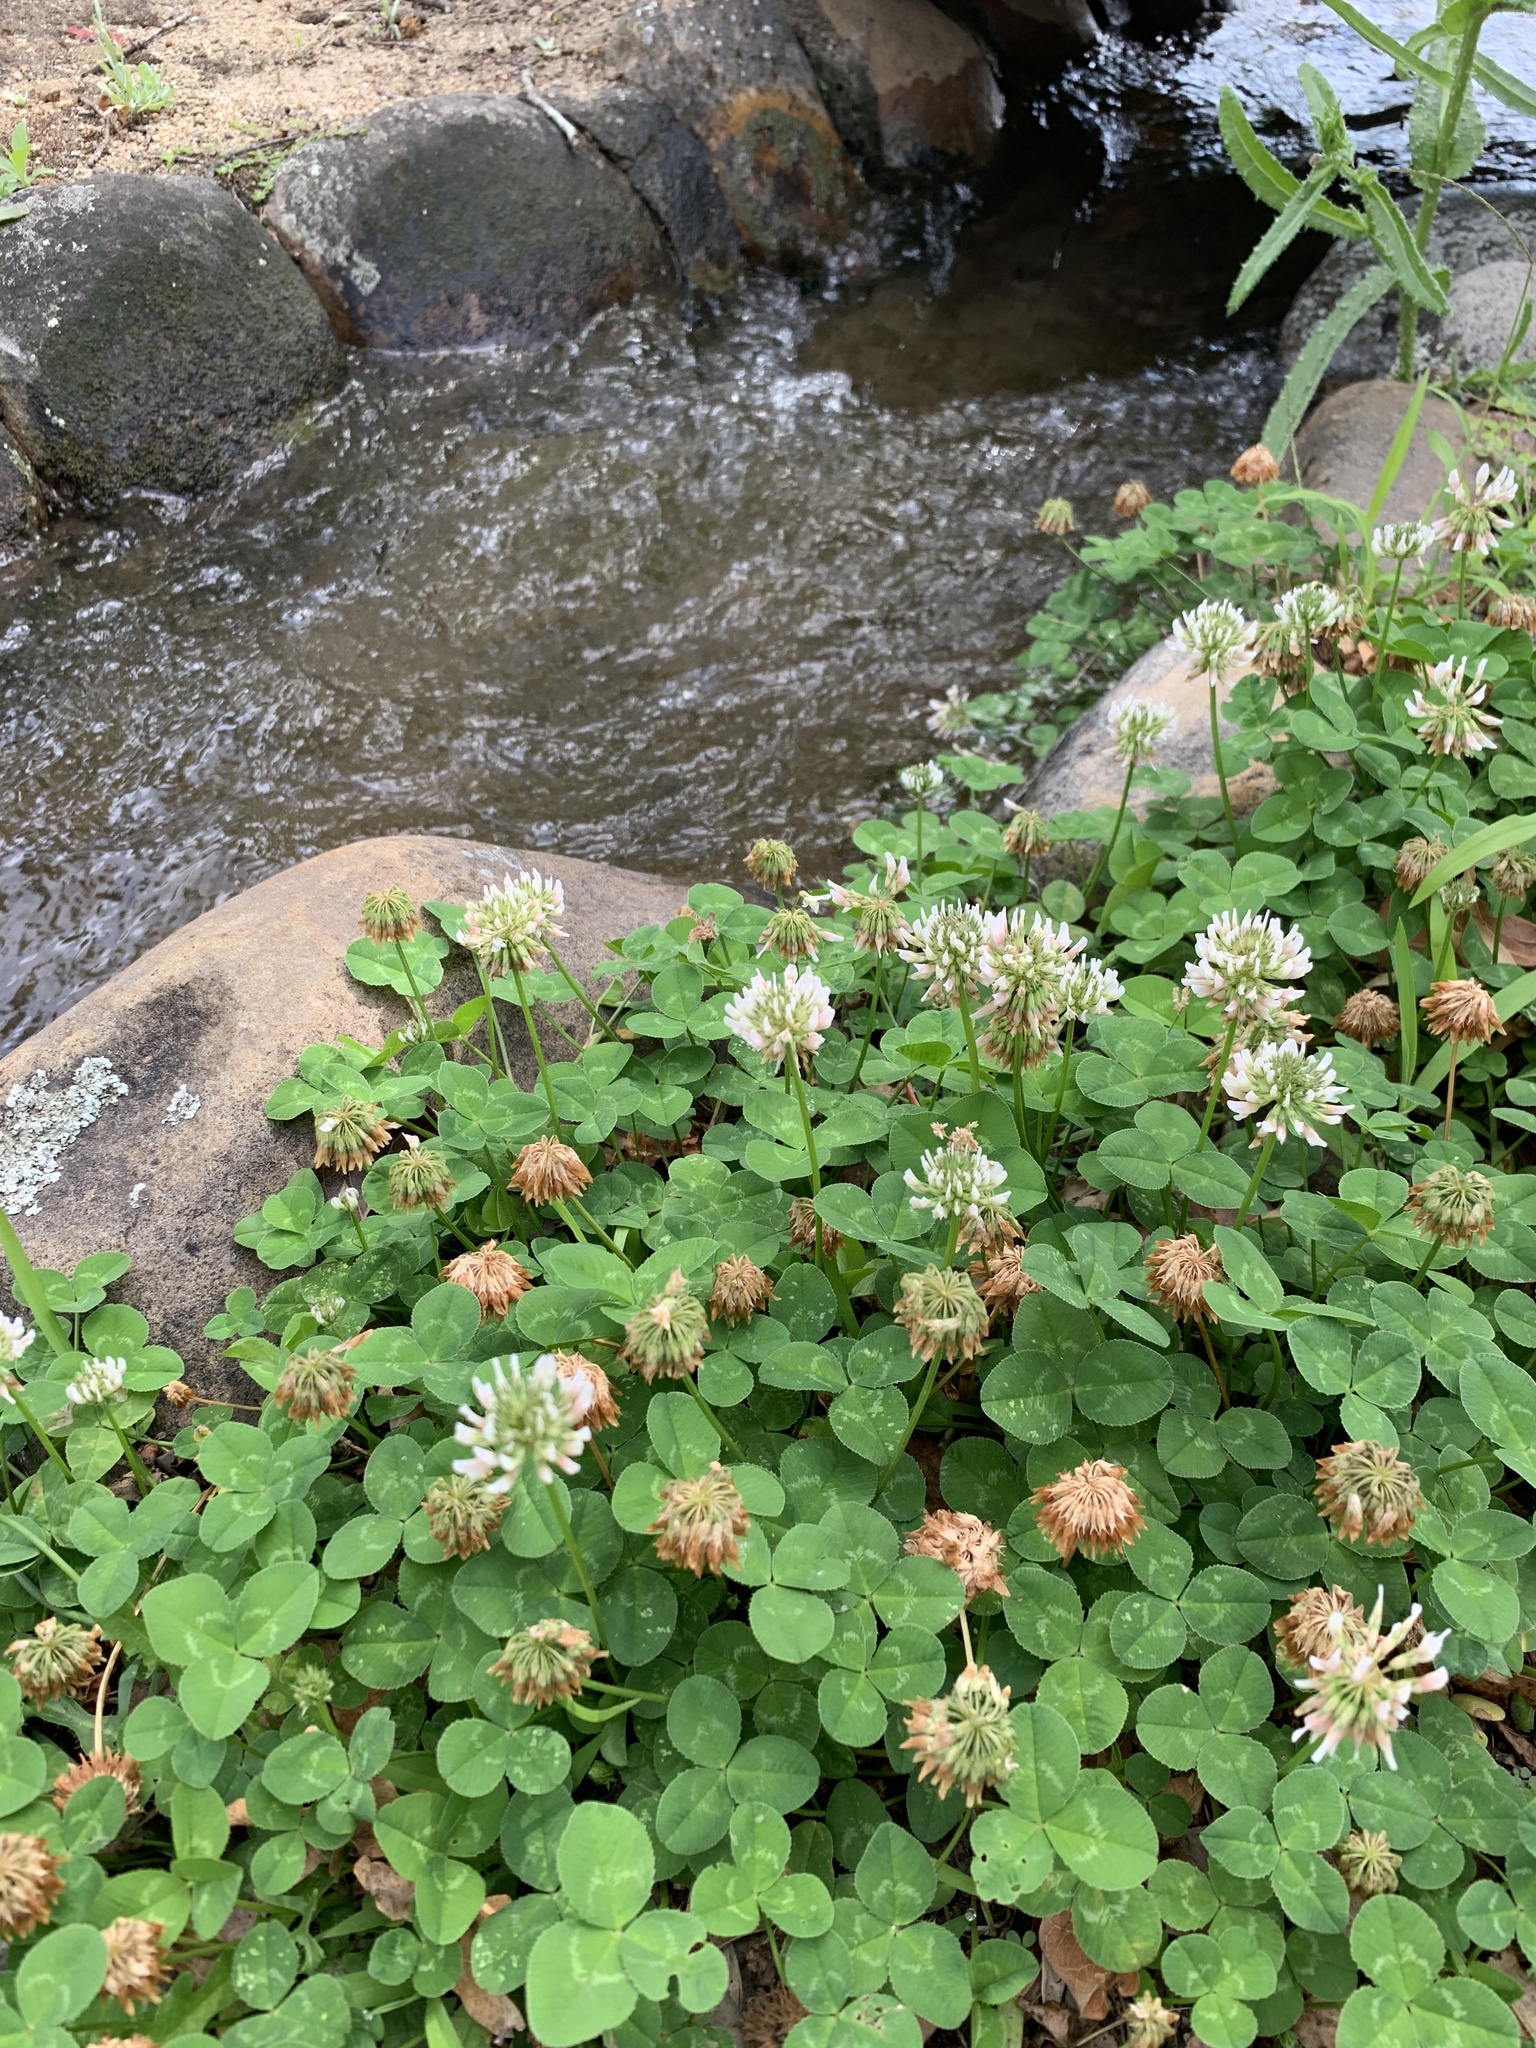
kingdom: Plantae
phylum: Tracheophyta
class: Magnoliopsida
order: Fabales
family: Fabaceae
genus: Trifolium
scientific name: Trifolium repens
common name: White clover
